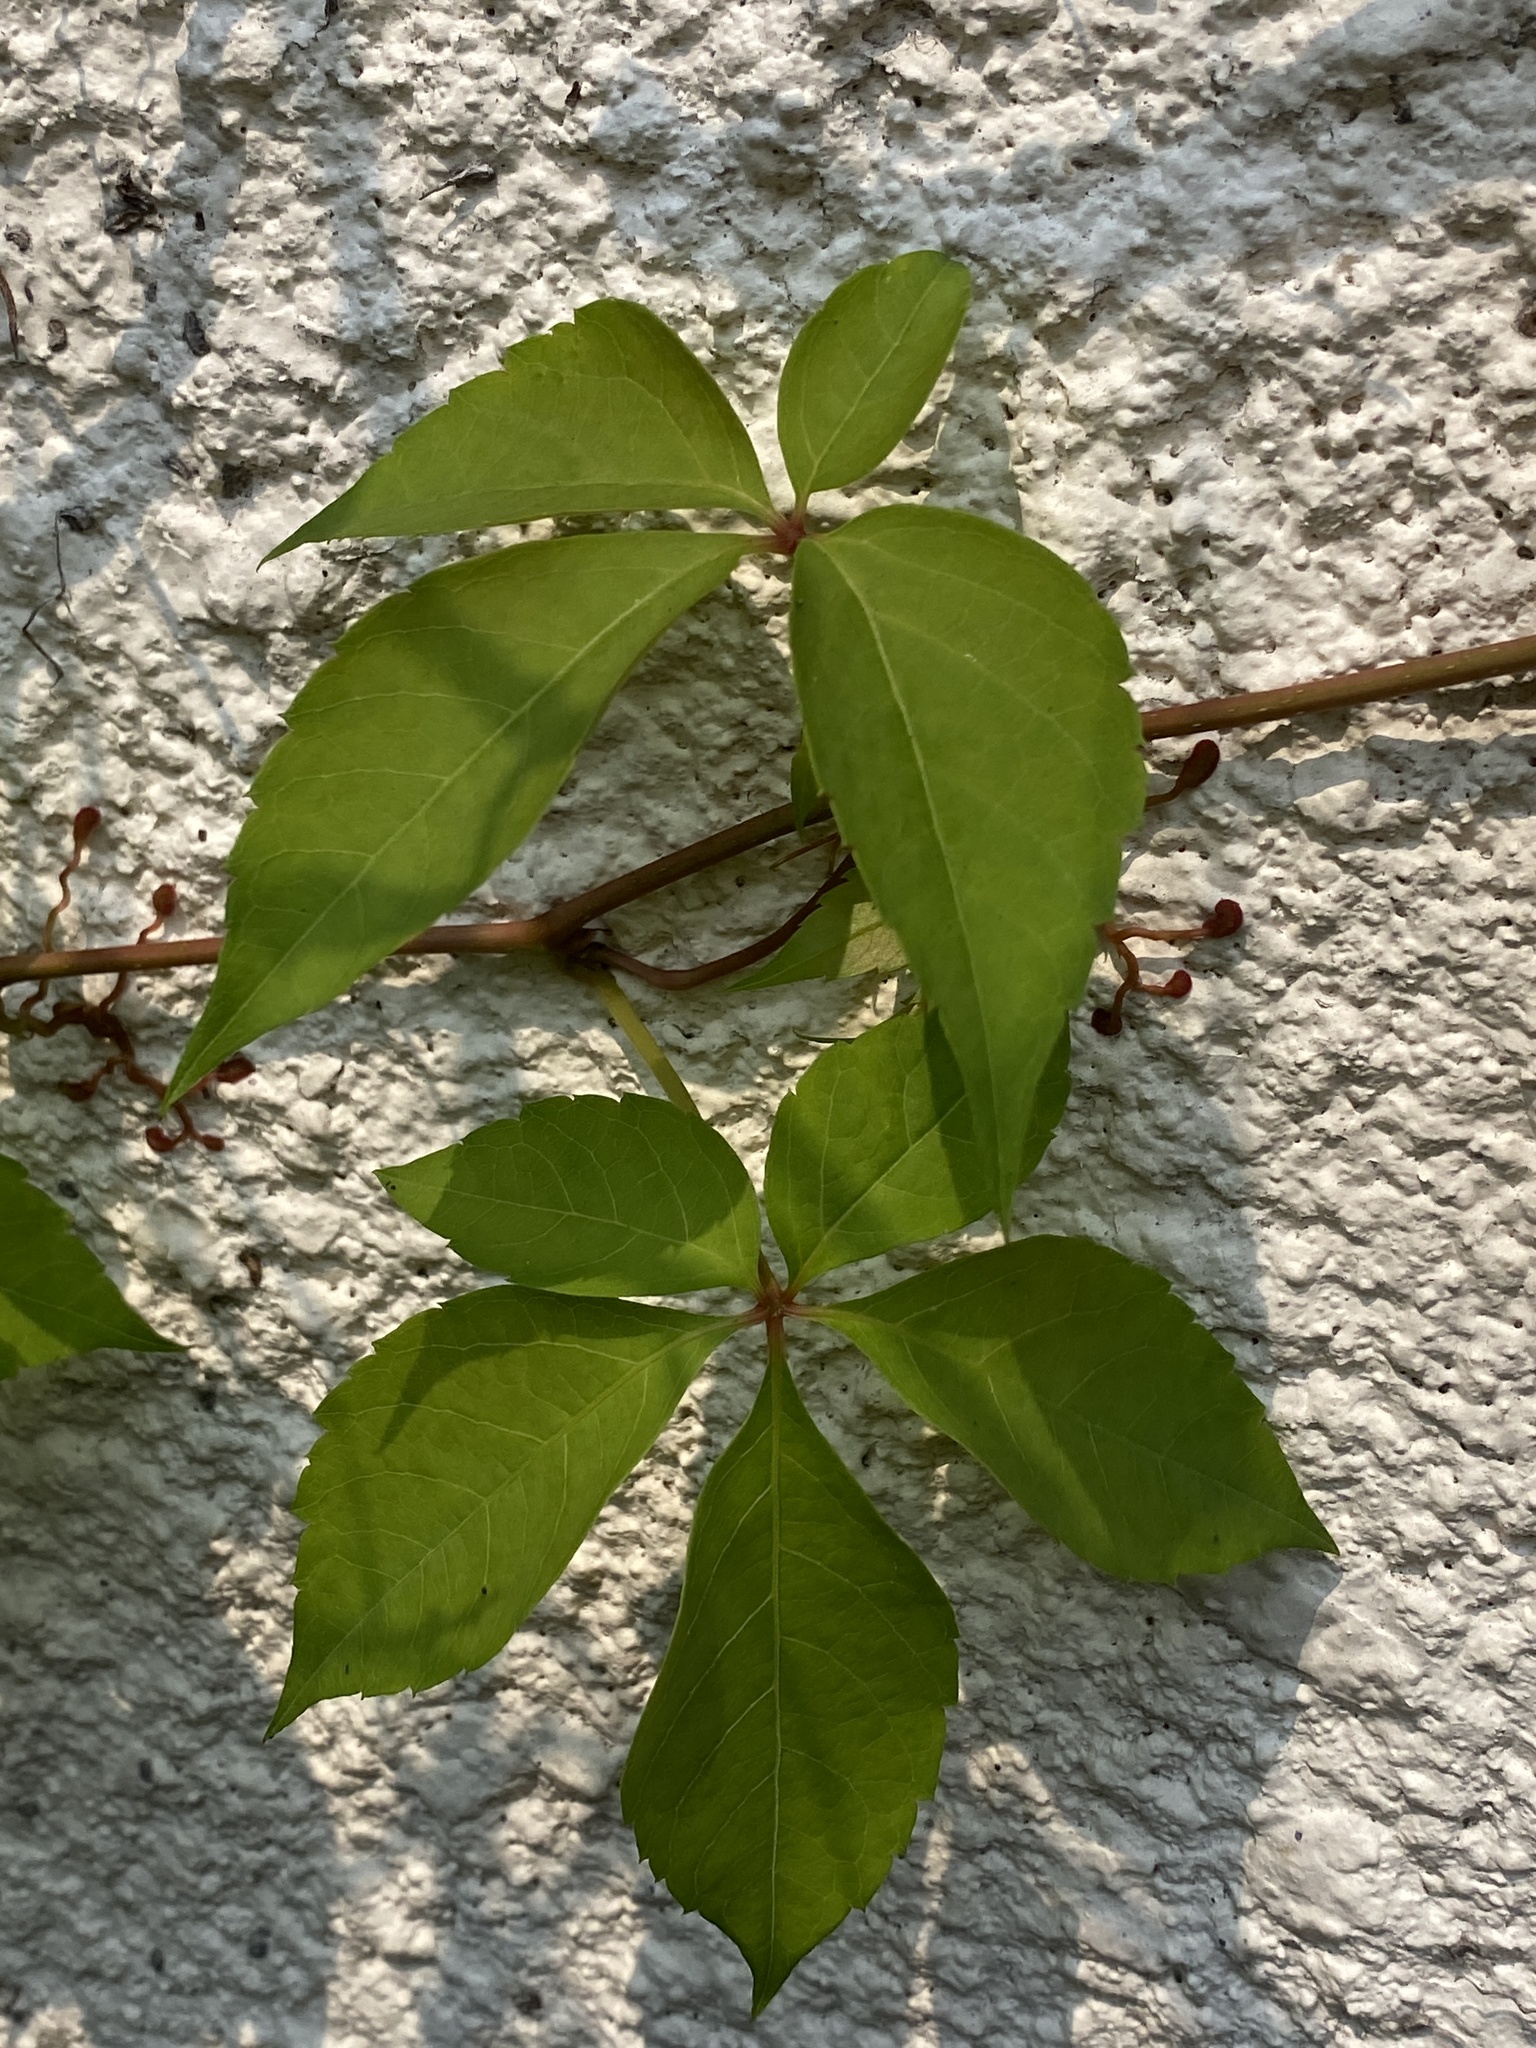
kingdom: Plantae
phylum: Tracheophyta
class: Magnoliopsida
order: Vitales
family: Vitaceae
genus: Parthenocissus
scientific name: Parthenocissus quinquefolia
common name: Virginia-creeper
